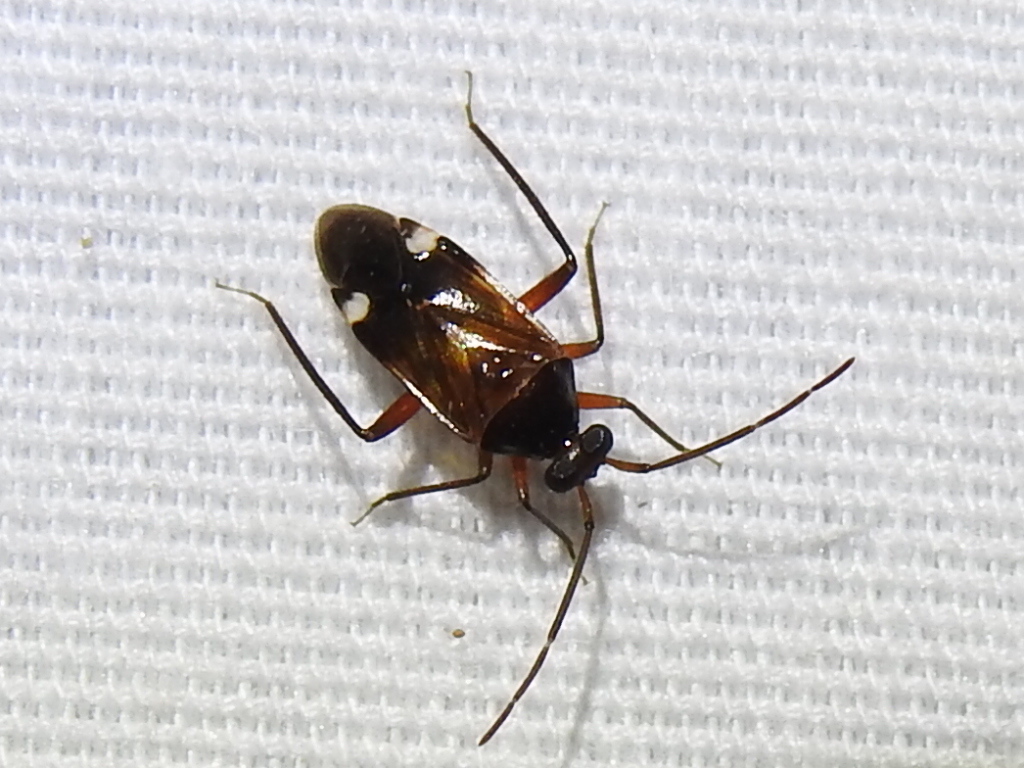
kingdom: Animalia
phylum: Arthropoda
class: Insecta
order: Hemiptera
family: Miridae
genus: Eustictus
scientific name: Eustictus albomaculatus
